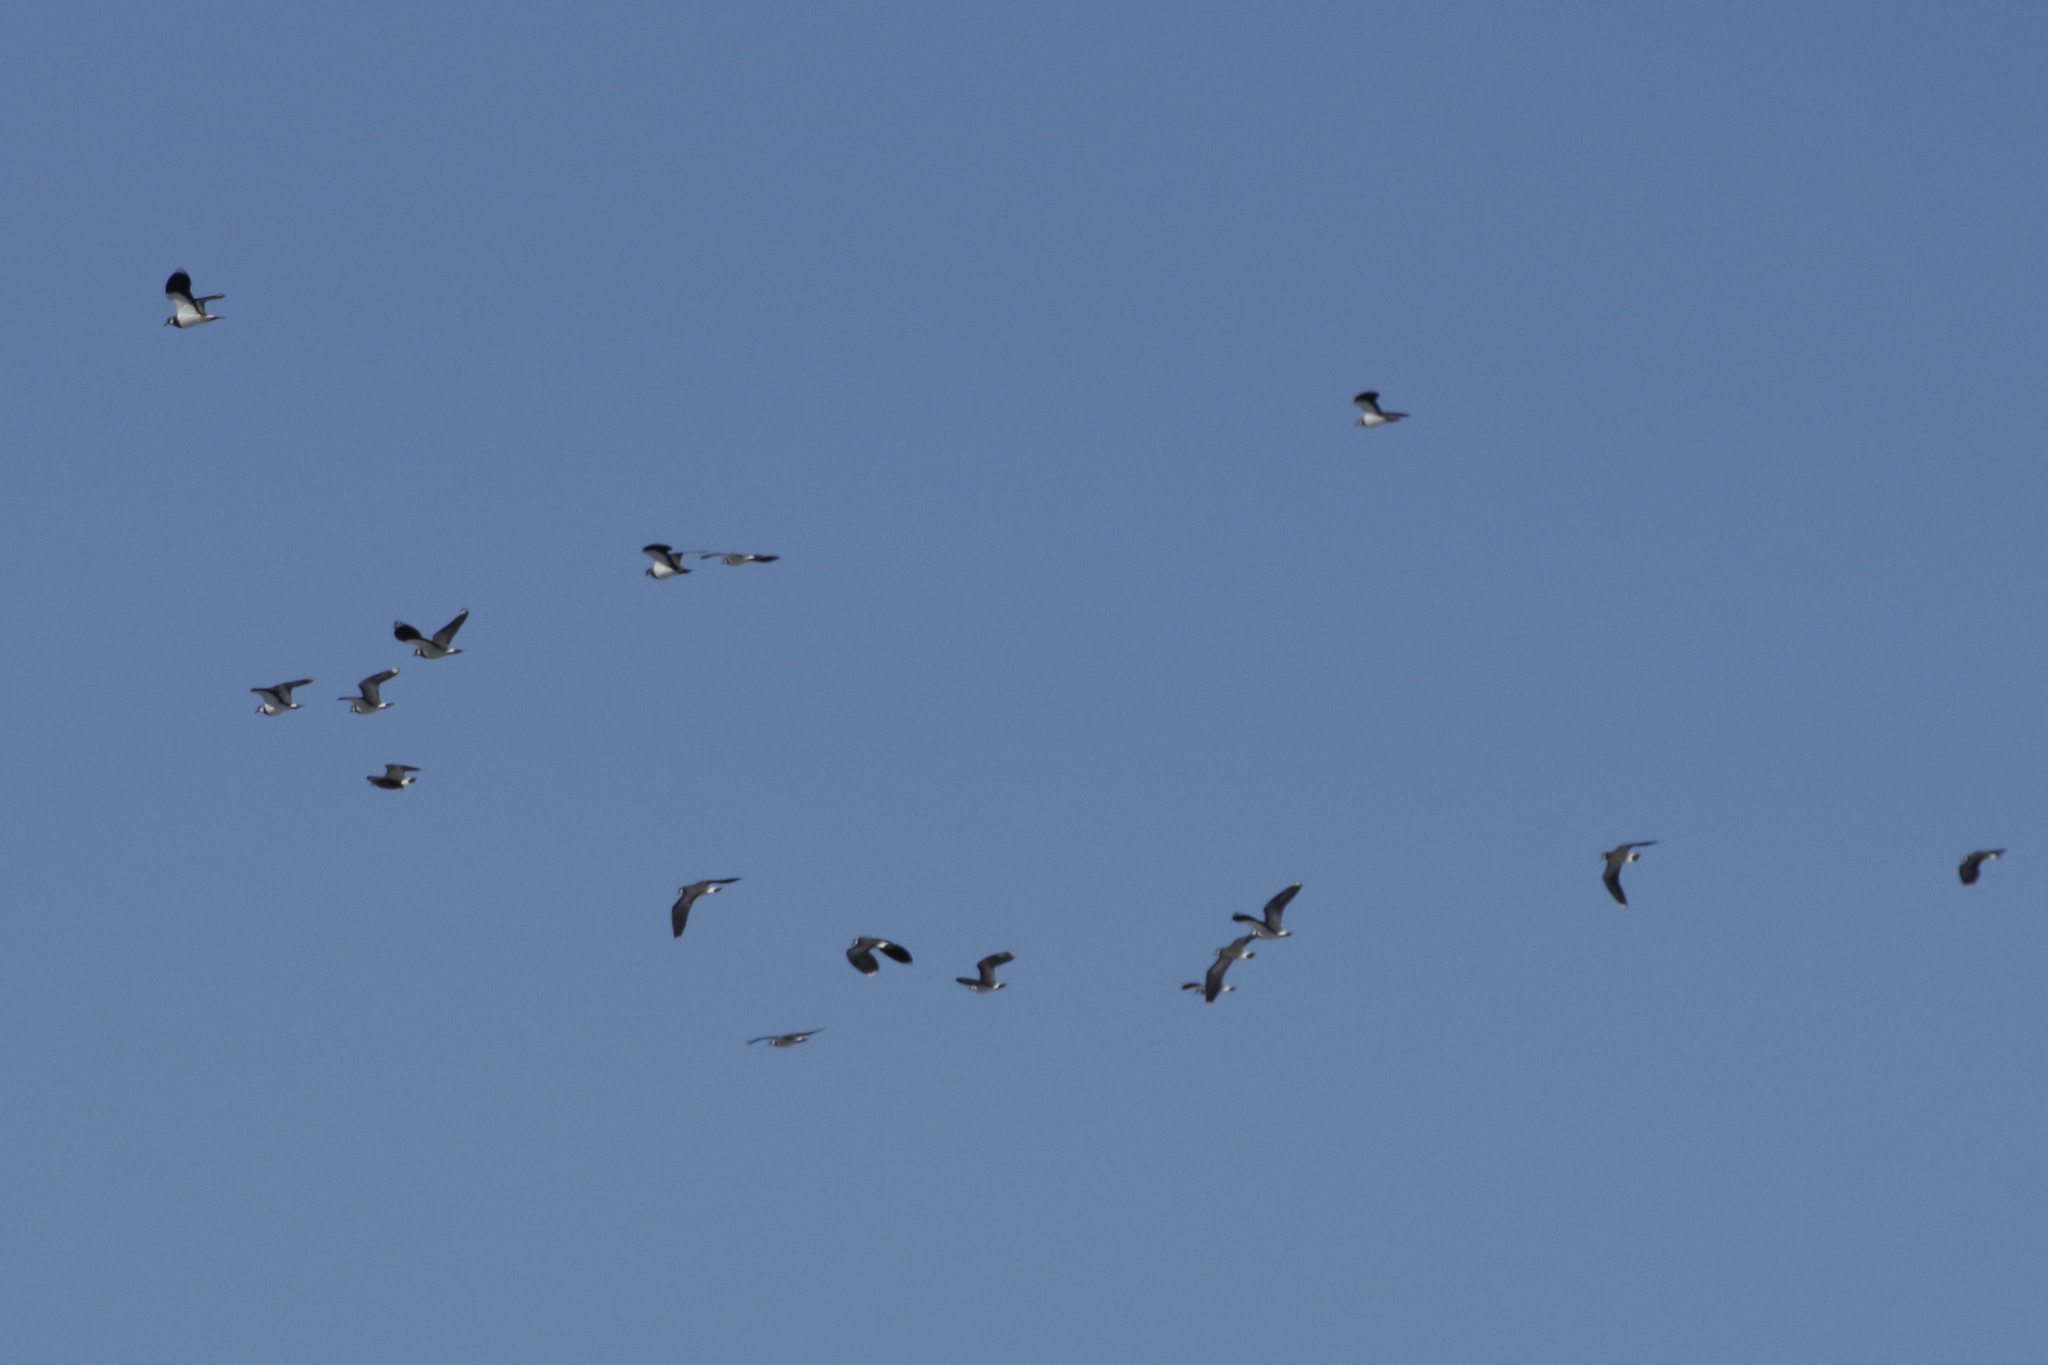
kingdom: Animalia
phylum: Chordata
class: Aves
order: Charadriiformes
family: Charadriidae
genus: Vanellus
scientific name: Vanellus vanellus
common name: Northern lapwing
